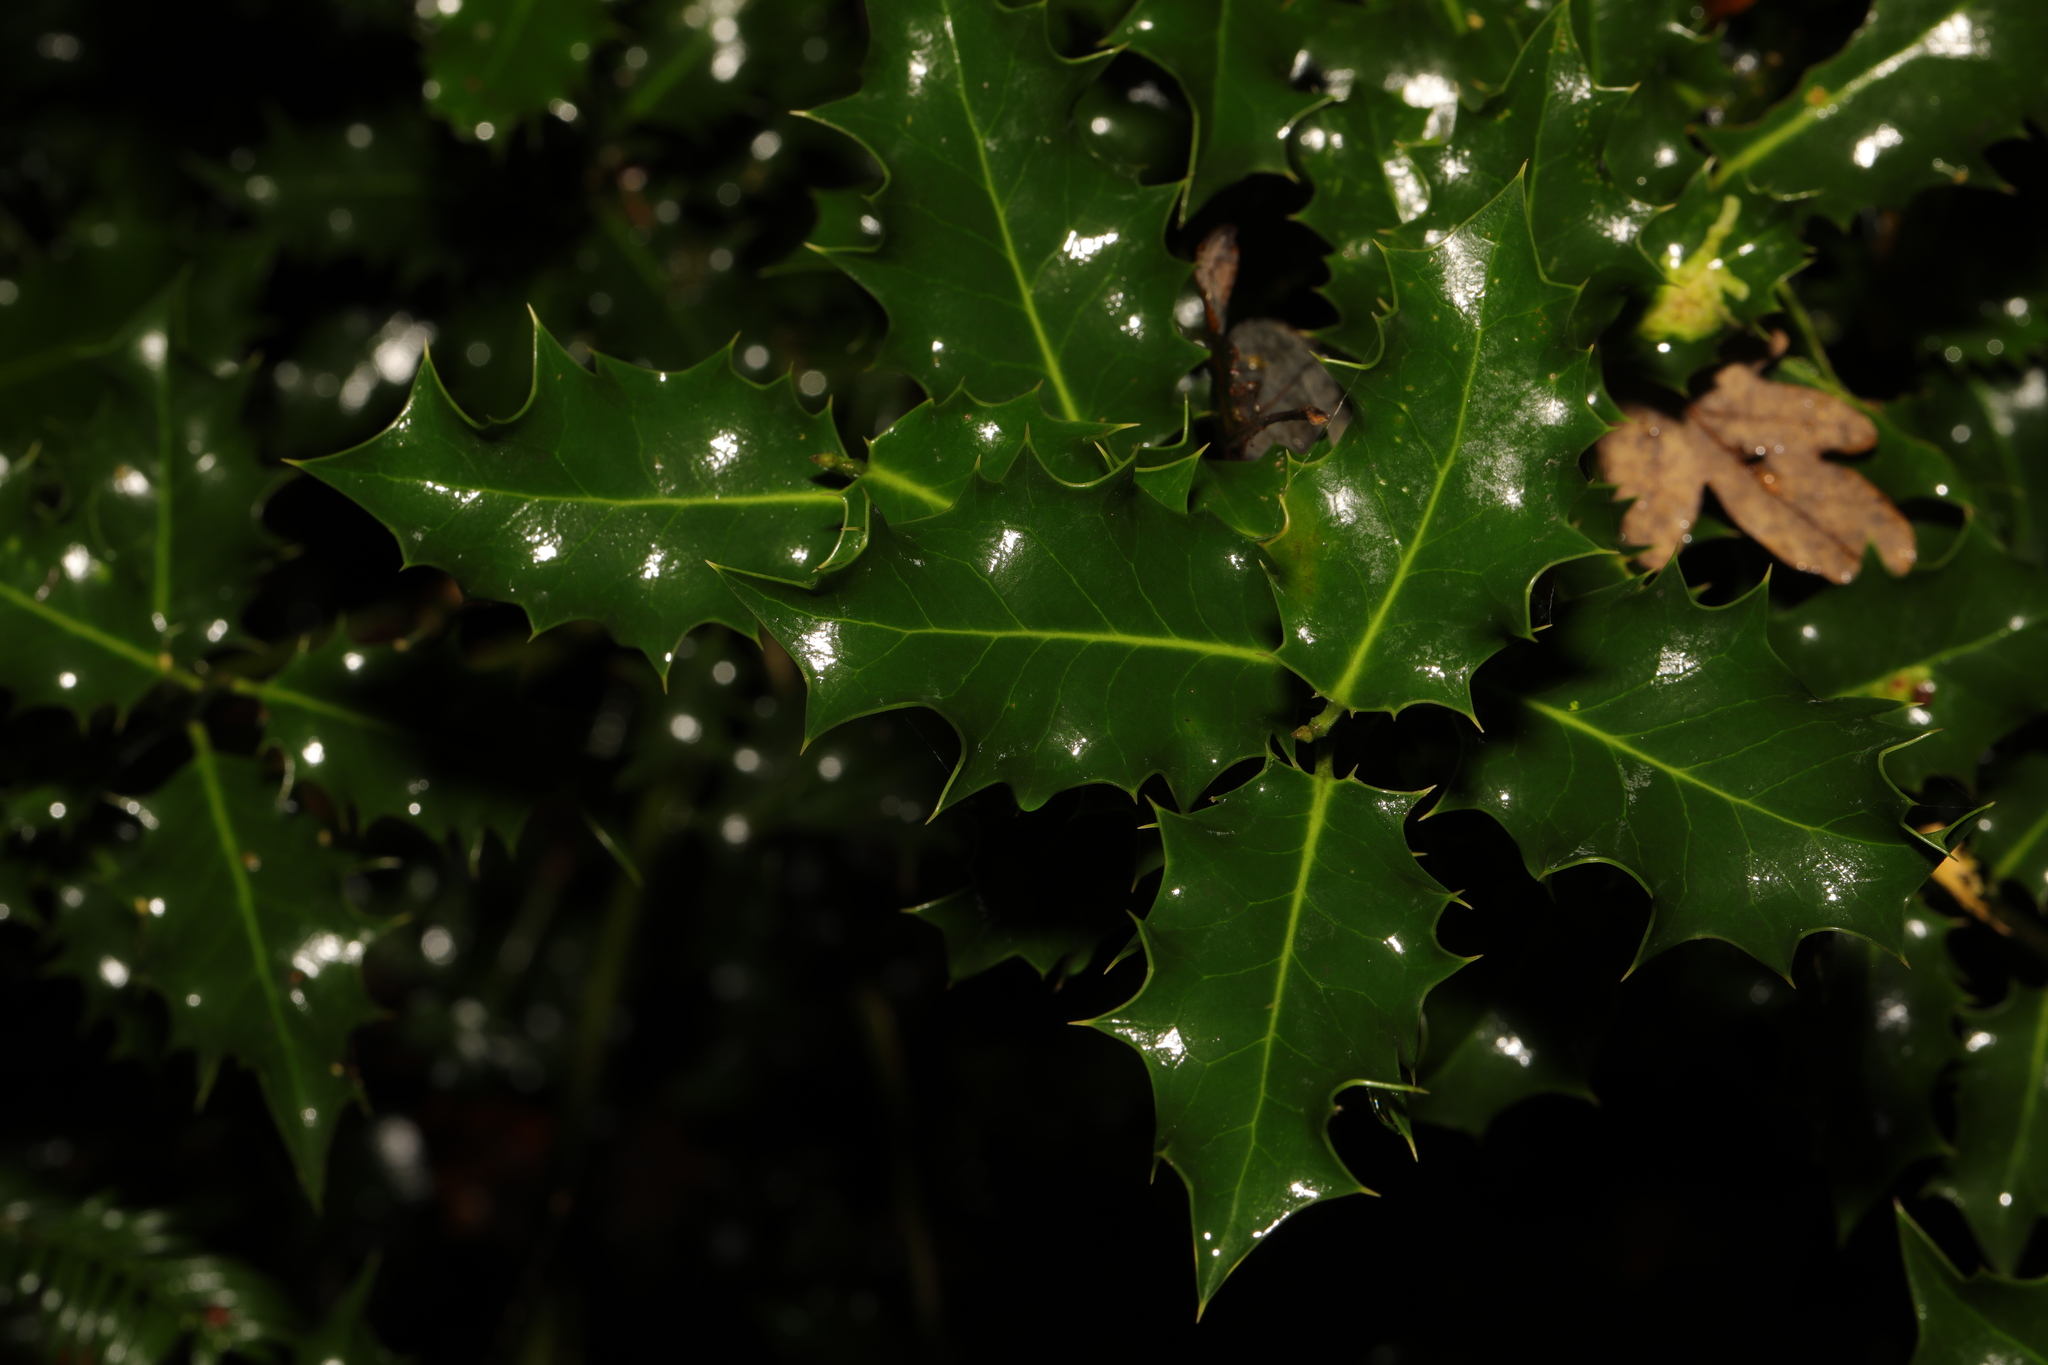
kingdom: Plantae
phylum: Tracheophyta
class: Magnoliopsida
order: Aquifoliales
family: Aquifoliaceae
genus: Ilex
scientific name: Ilex aquifolium
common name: English holly
